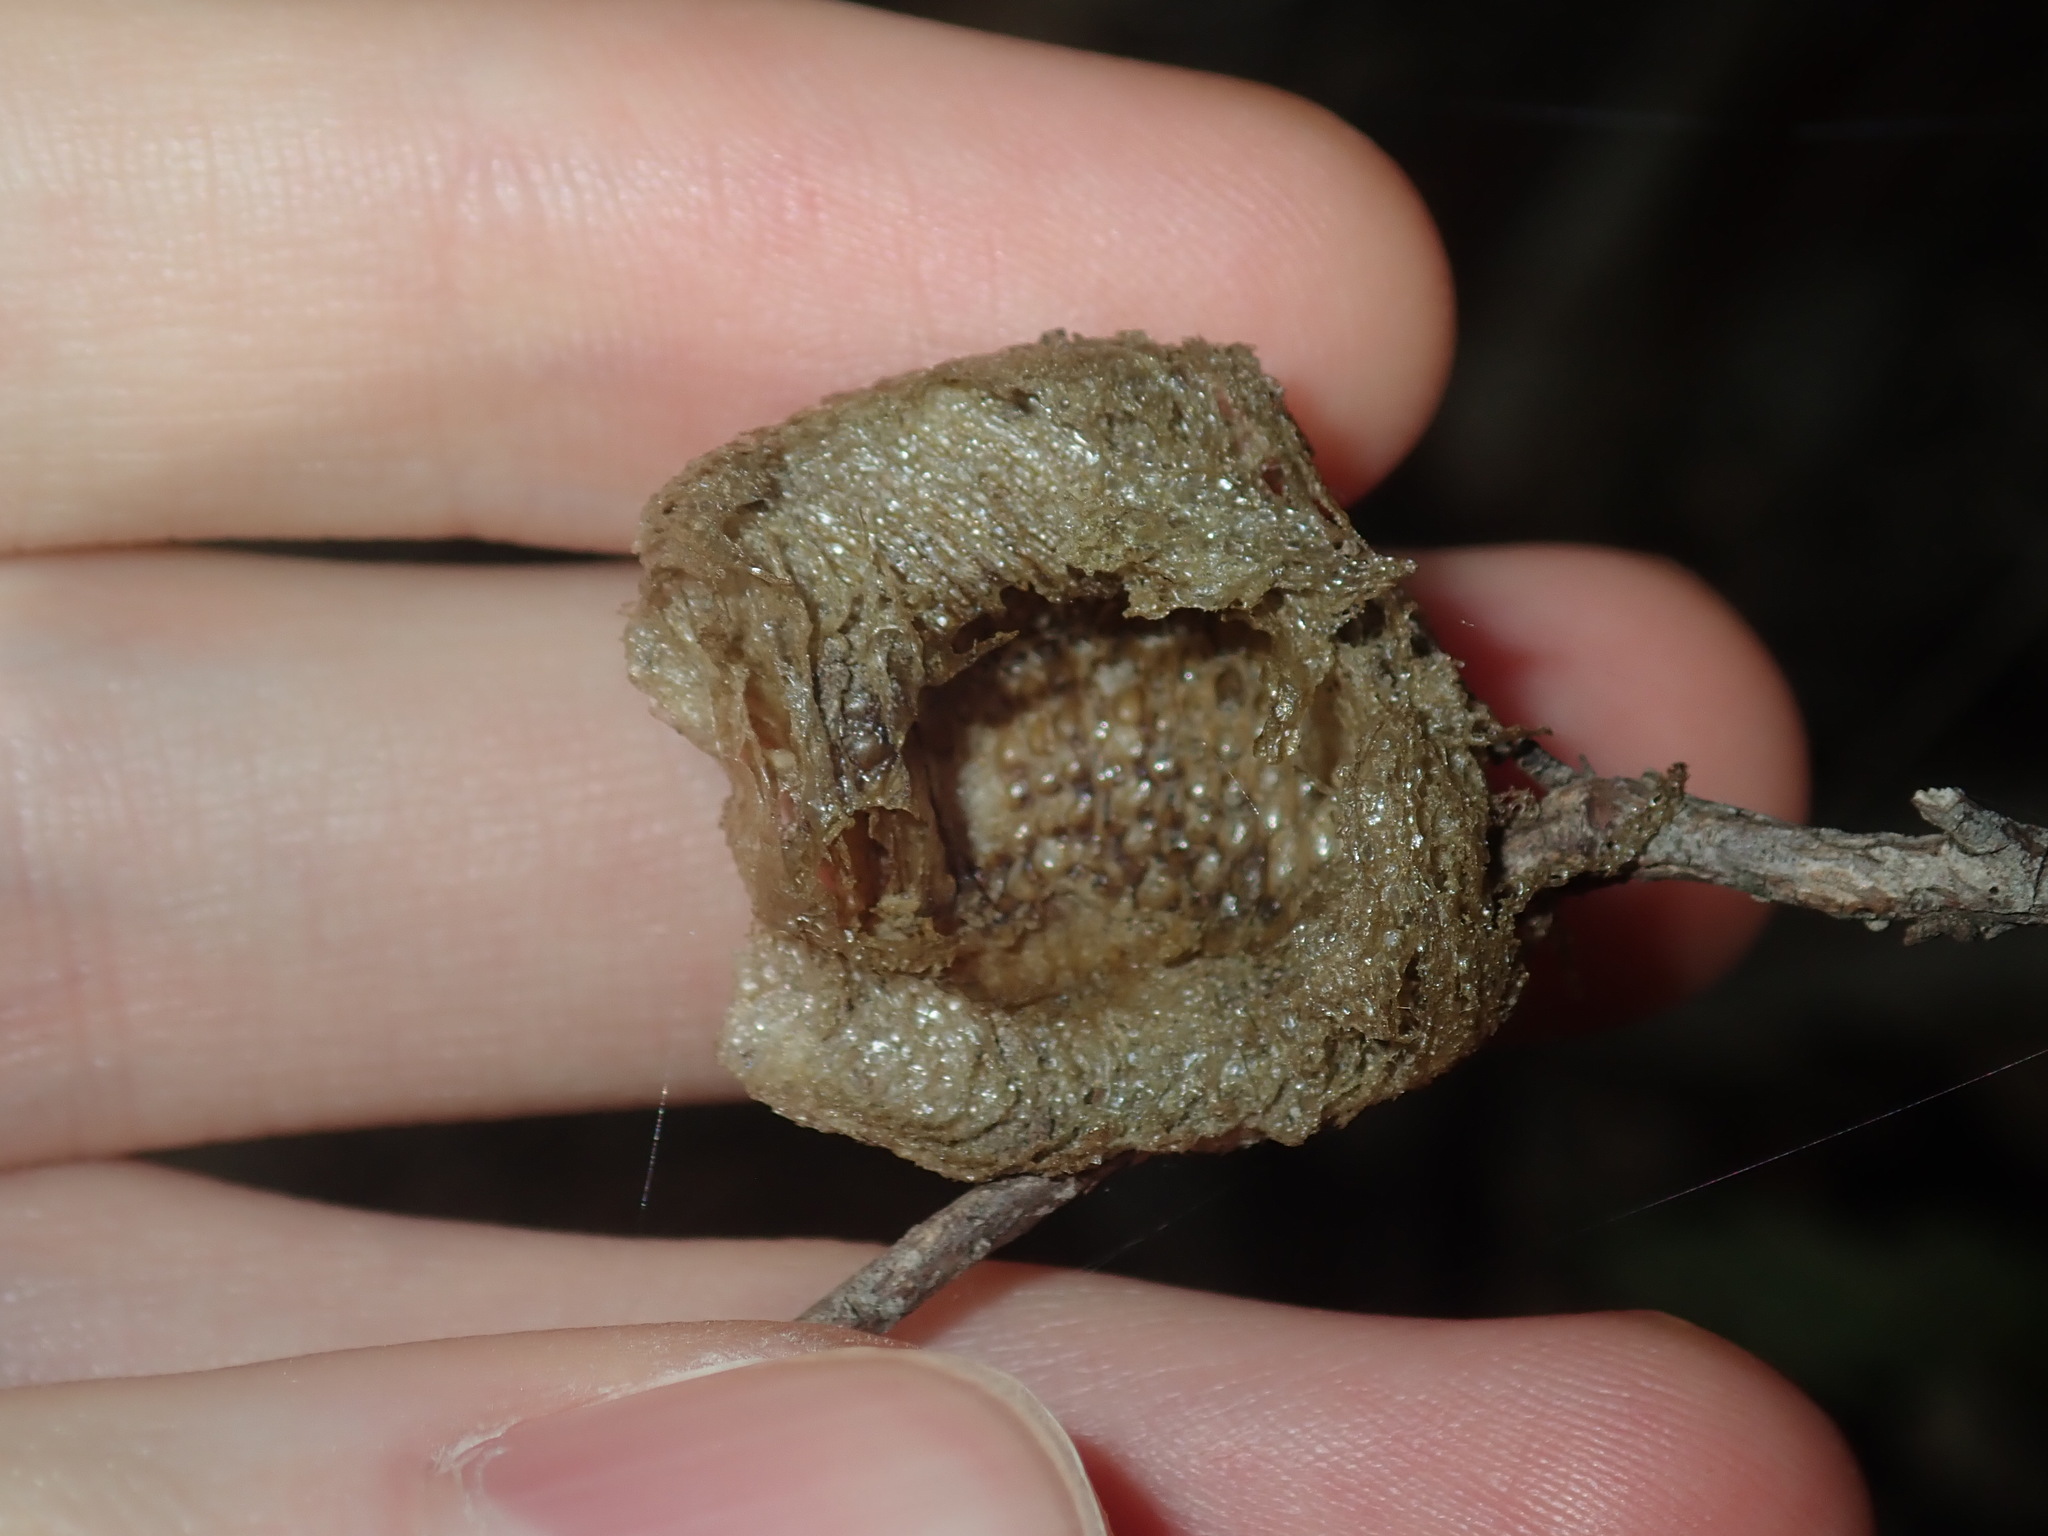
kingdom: Animalia
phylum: Arthropoda
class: Insecta
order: Mantodea
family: Mantidae
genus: Archimantis
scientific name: Archimantis latistyla
